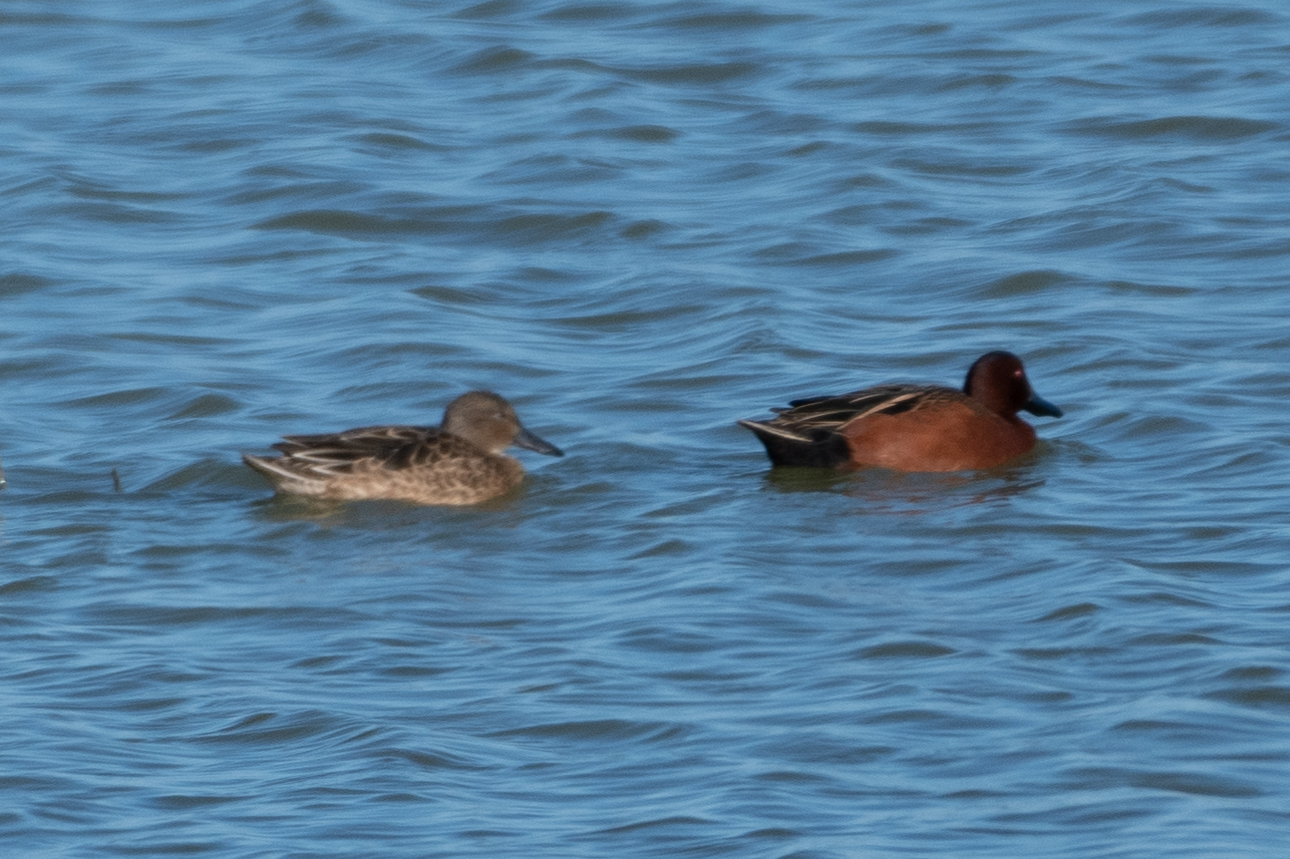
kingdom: Animalia
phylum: Chordata
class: Aves
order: Anseriformes
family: Anatidae
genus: Spatula
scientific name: Spatula cyanoptera
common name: Cinnamon teal
